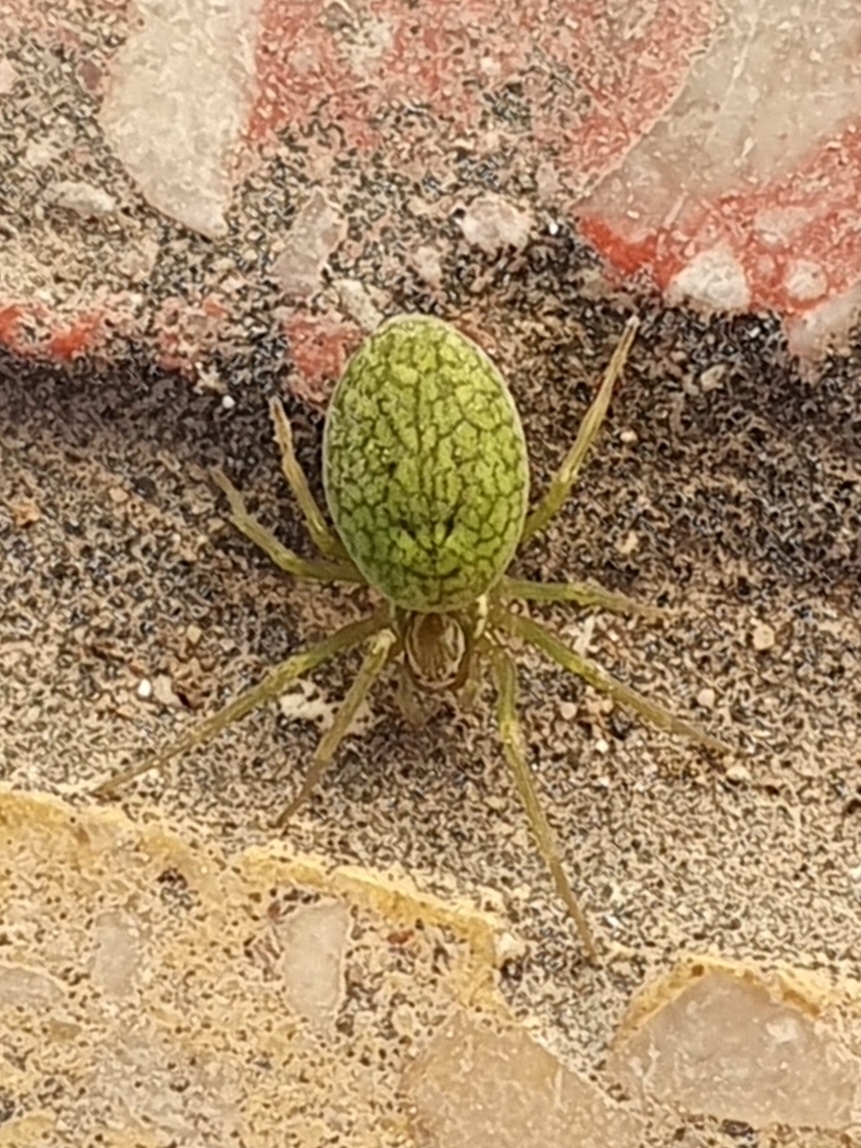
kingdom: Animalia
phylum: Arthropoda
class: Arachnida
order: Araneae
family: Dictynidae
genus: Nigma
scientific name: Nigma walckenaeri
